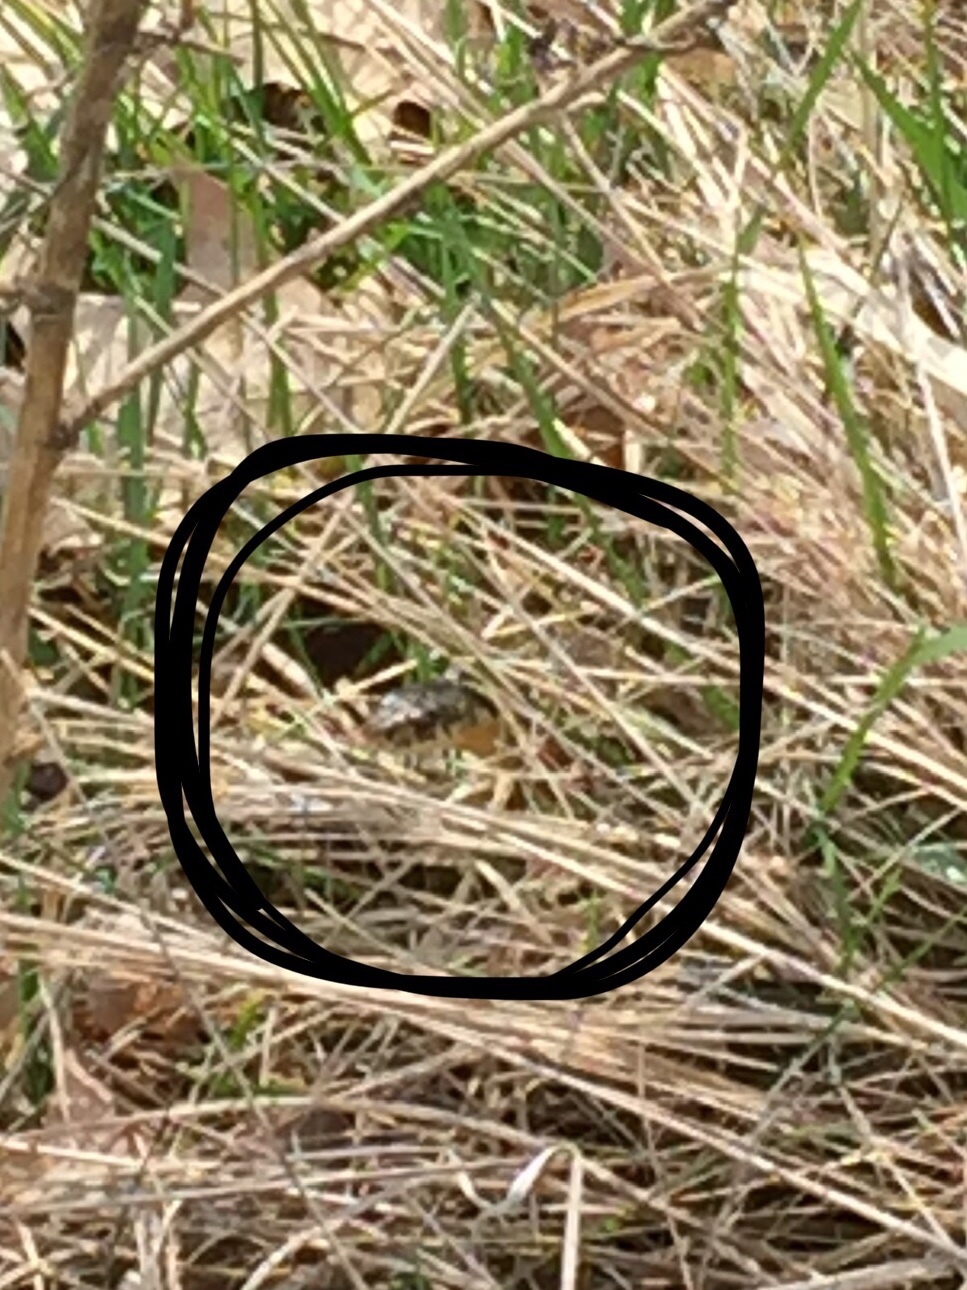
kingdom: Animalia
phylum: Chordata
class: Squamata
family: Colubridae
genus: Thamnophis
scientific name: Thamnophis sirtalis
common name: Common garter snake
